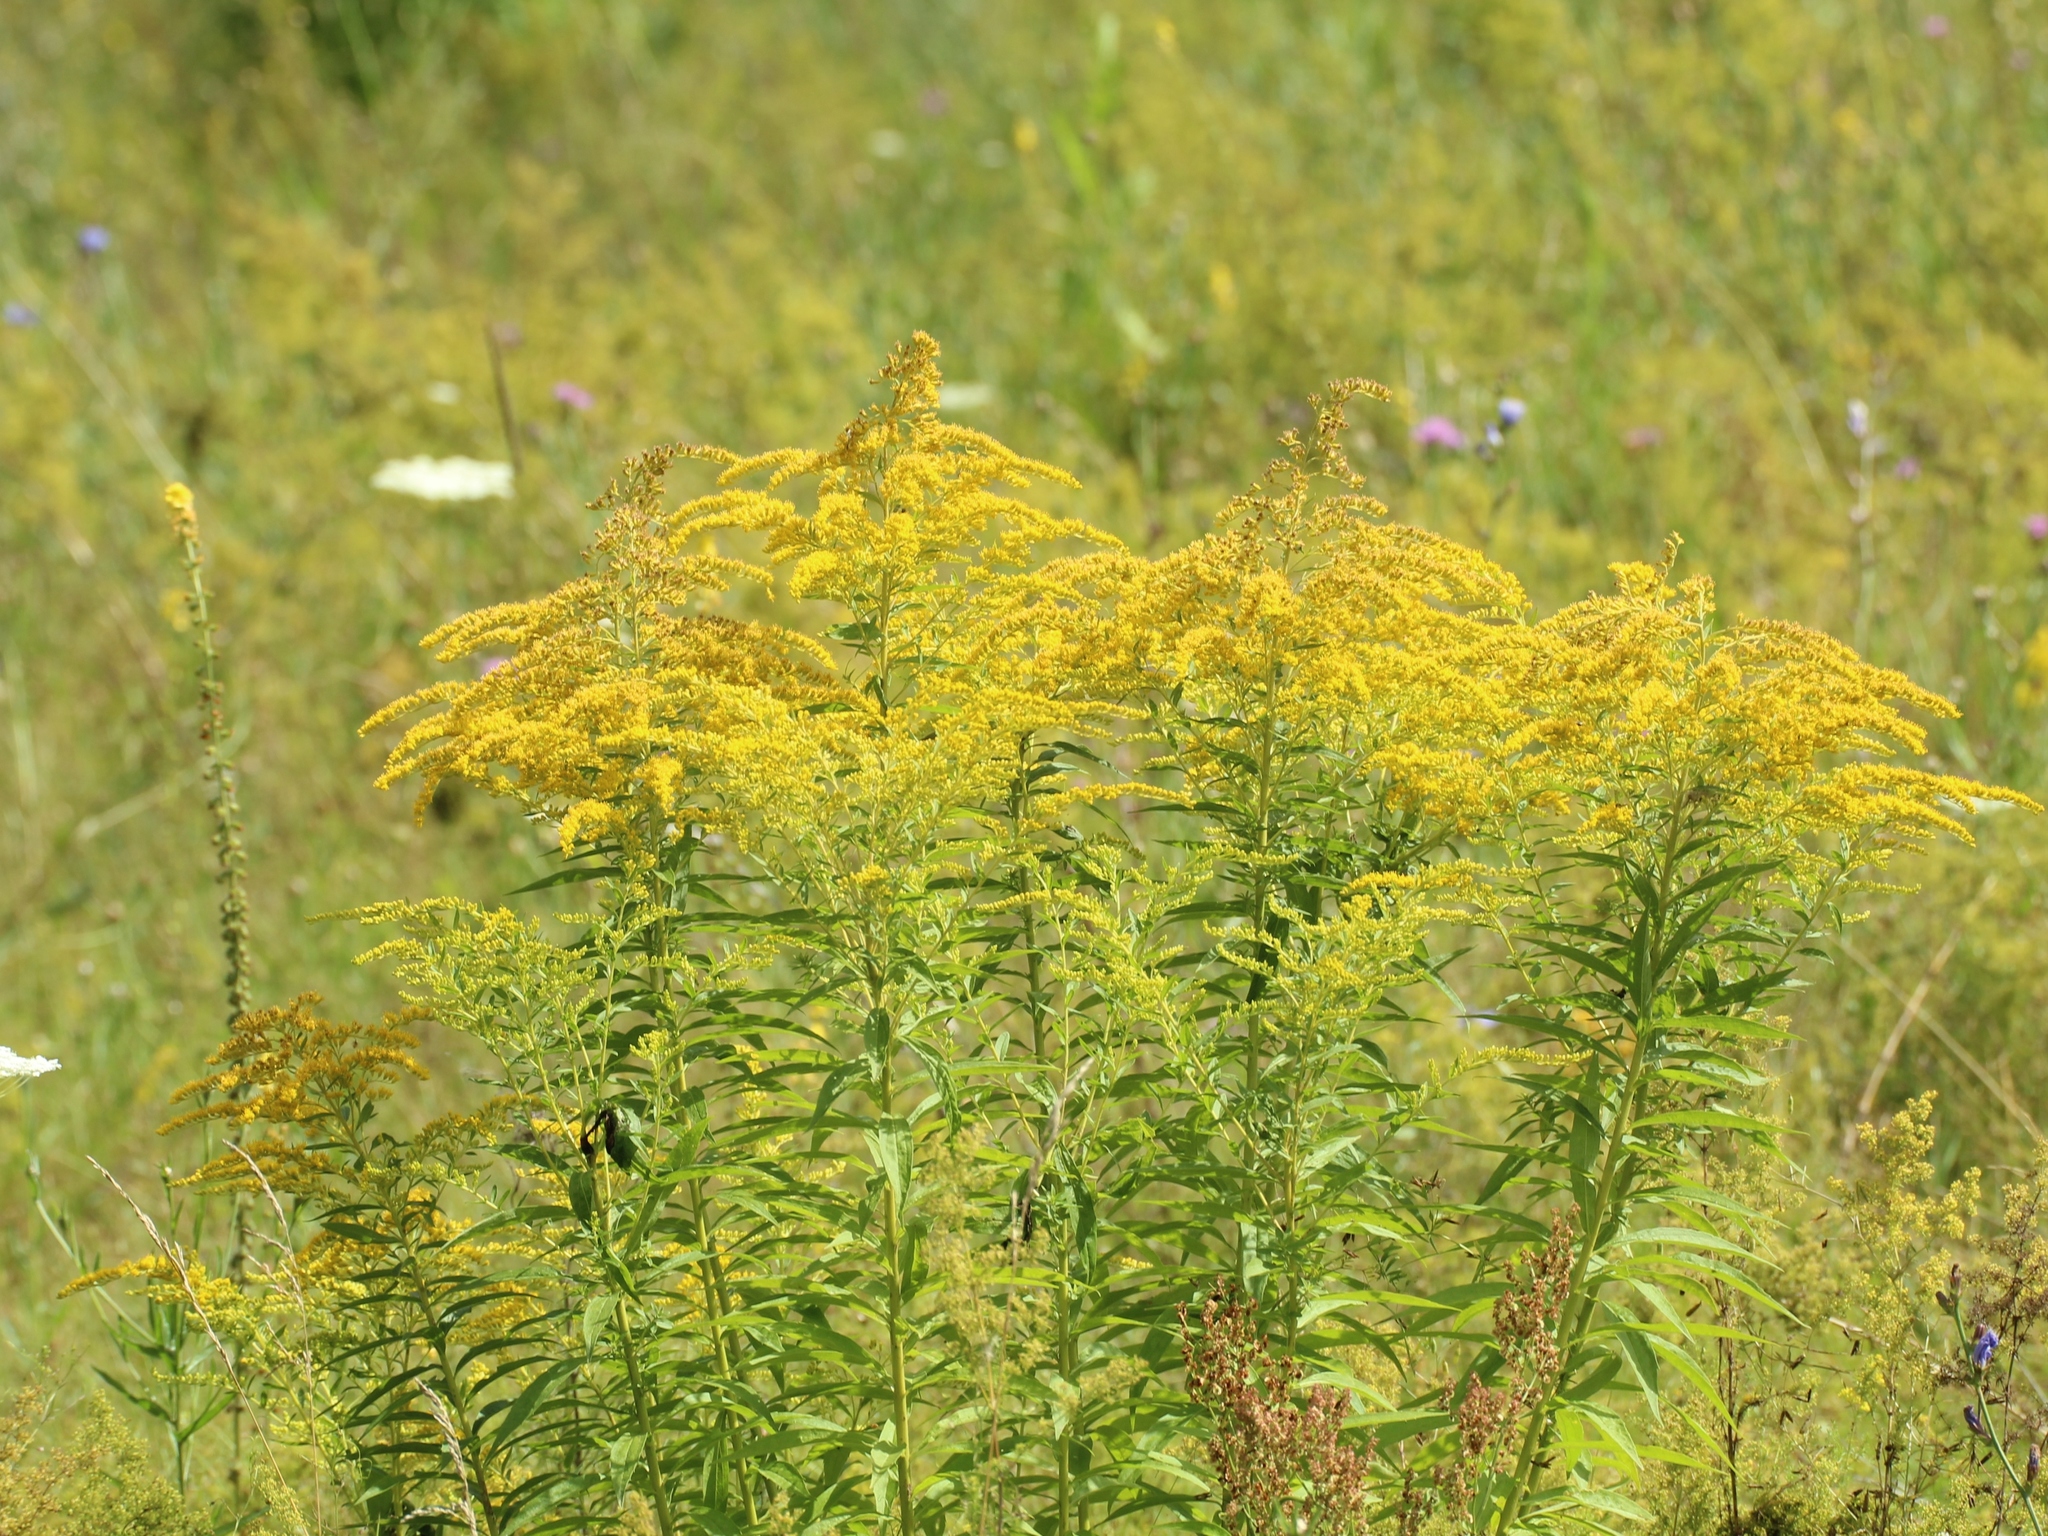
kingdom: Plantae
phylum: Tracheophyta
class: Magnoliopsida
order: Asterales
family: Asteraceae
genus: Solidago
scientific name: Solidago canadensis
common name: Canada goldenrod
